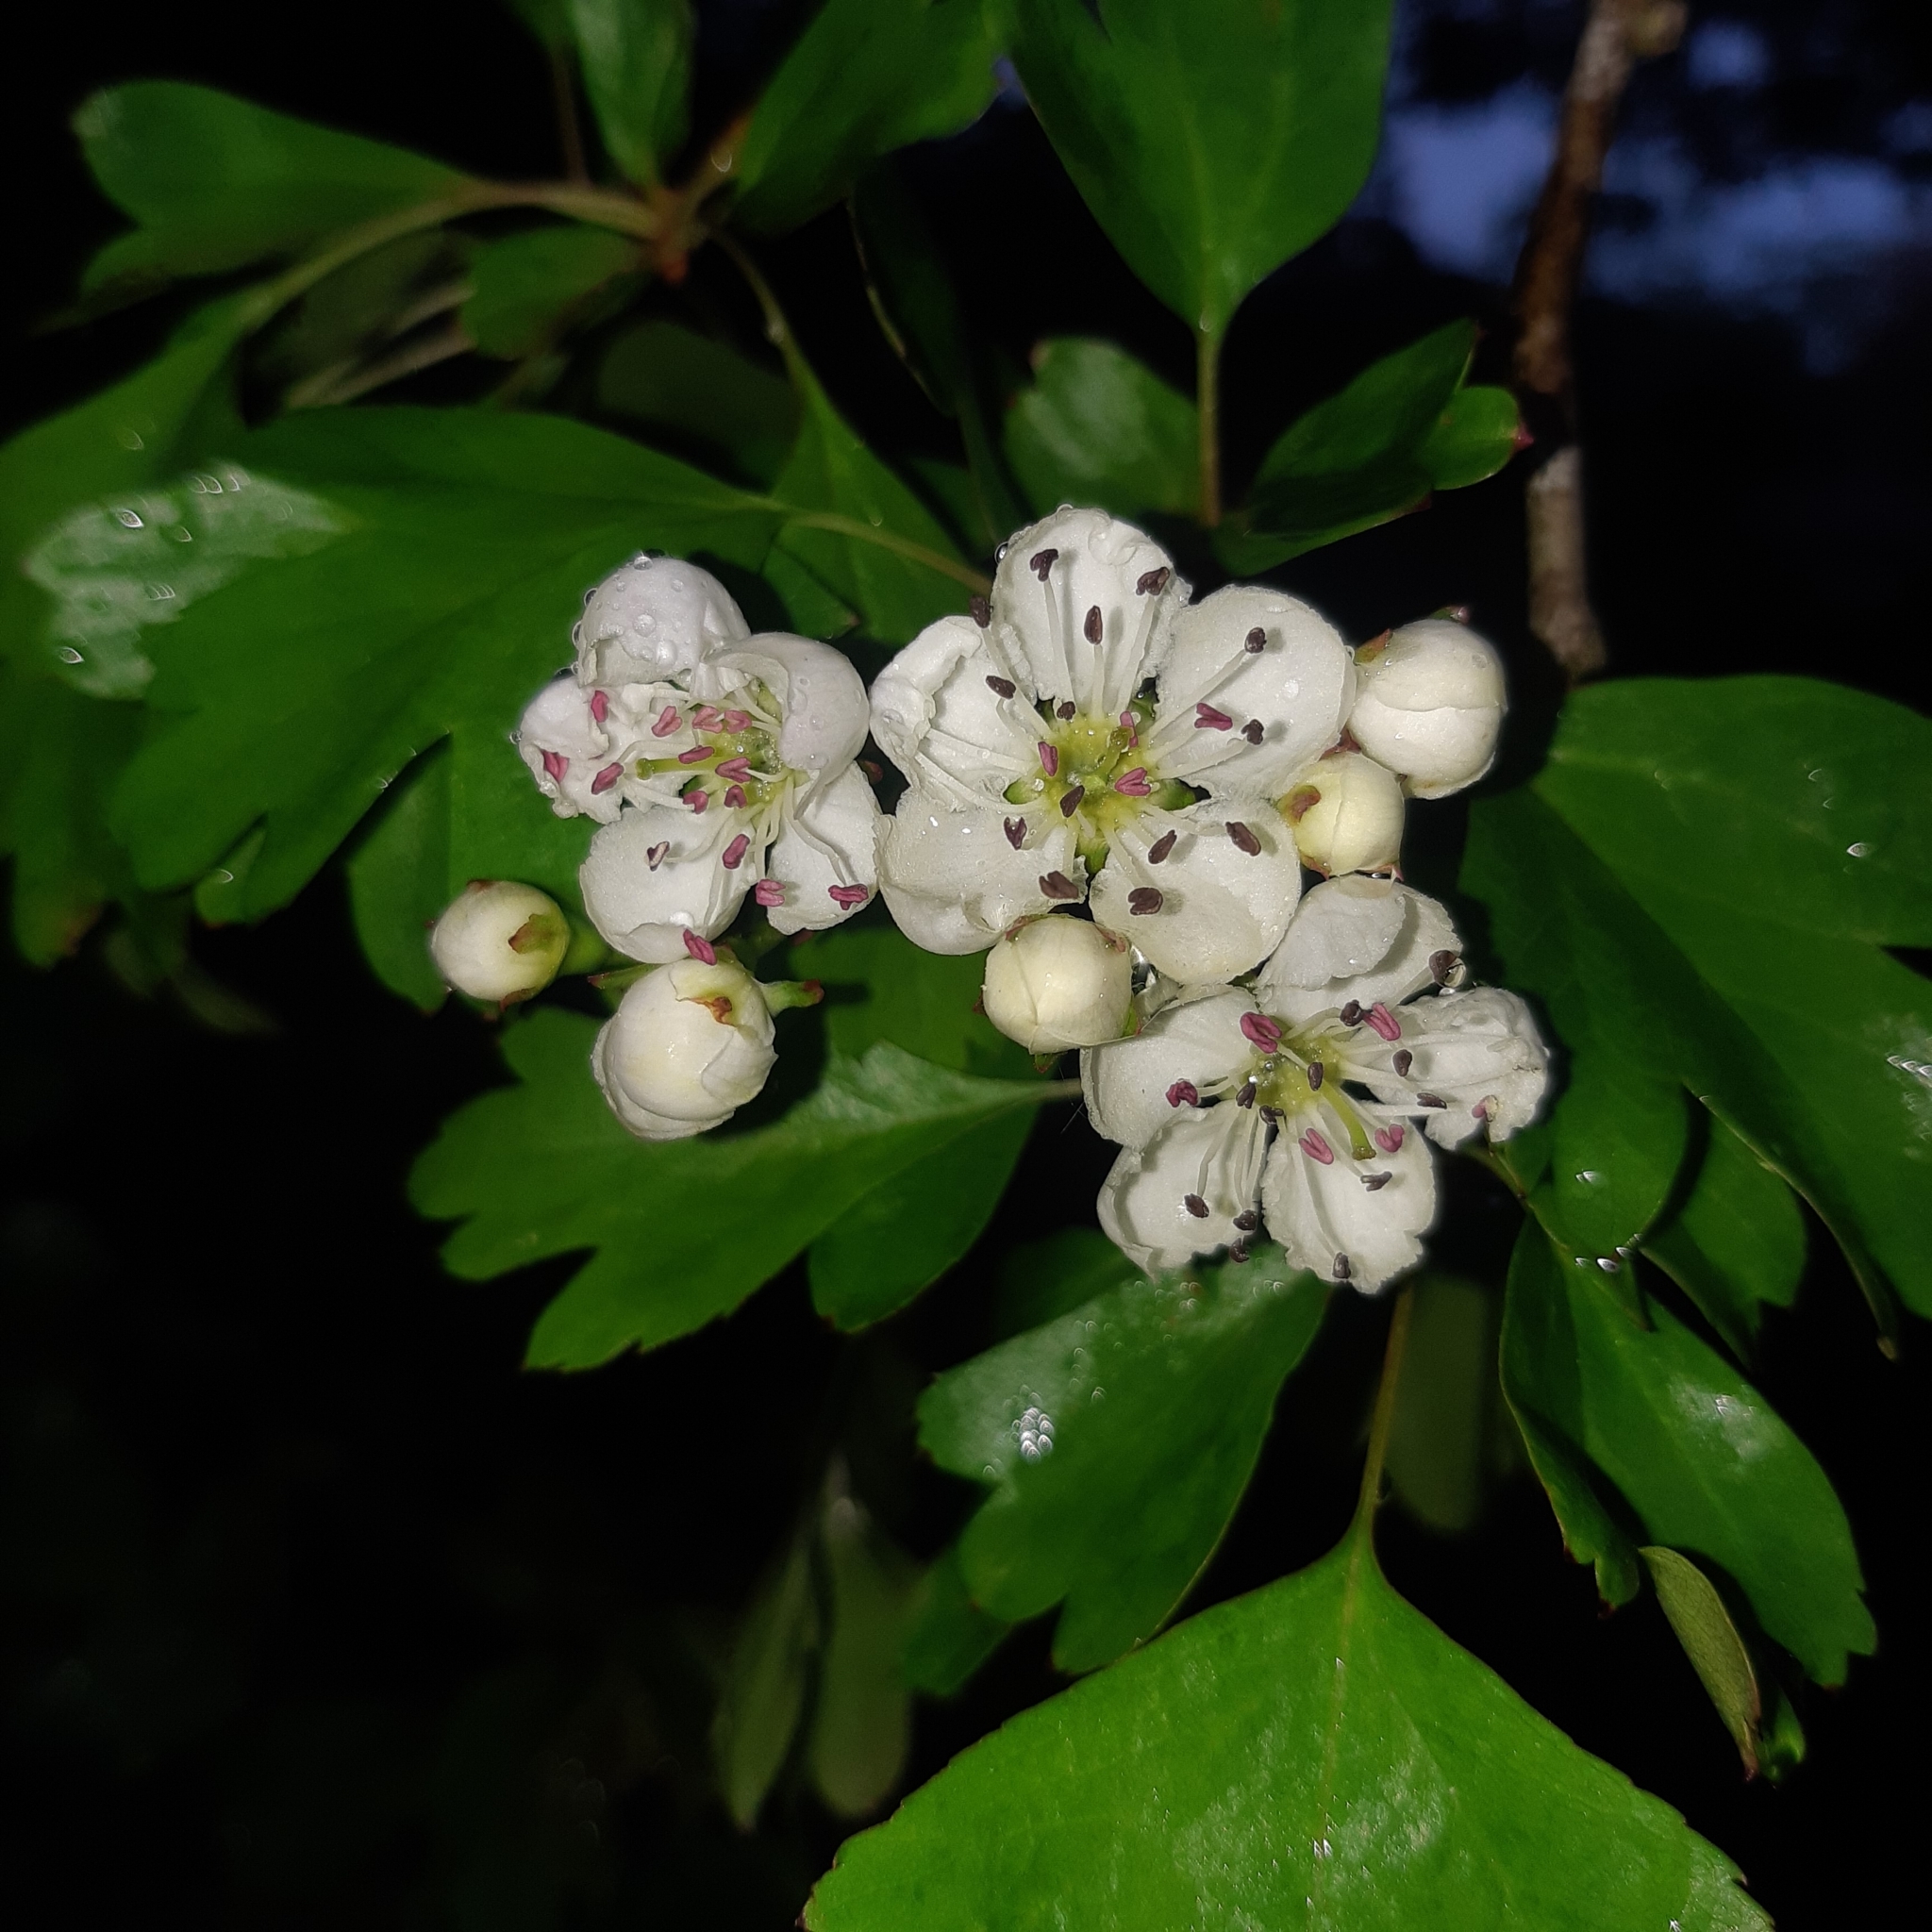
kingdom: Plantae
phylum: Tracheophyta
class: Magnoliopsida
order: Rosales
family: Rosaceae
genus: Crataegus
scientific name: Crataegus monogyna
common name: Hawthorn
